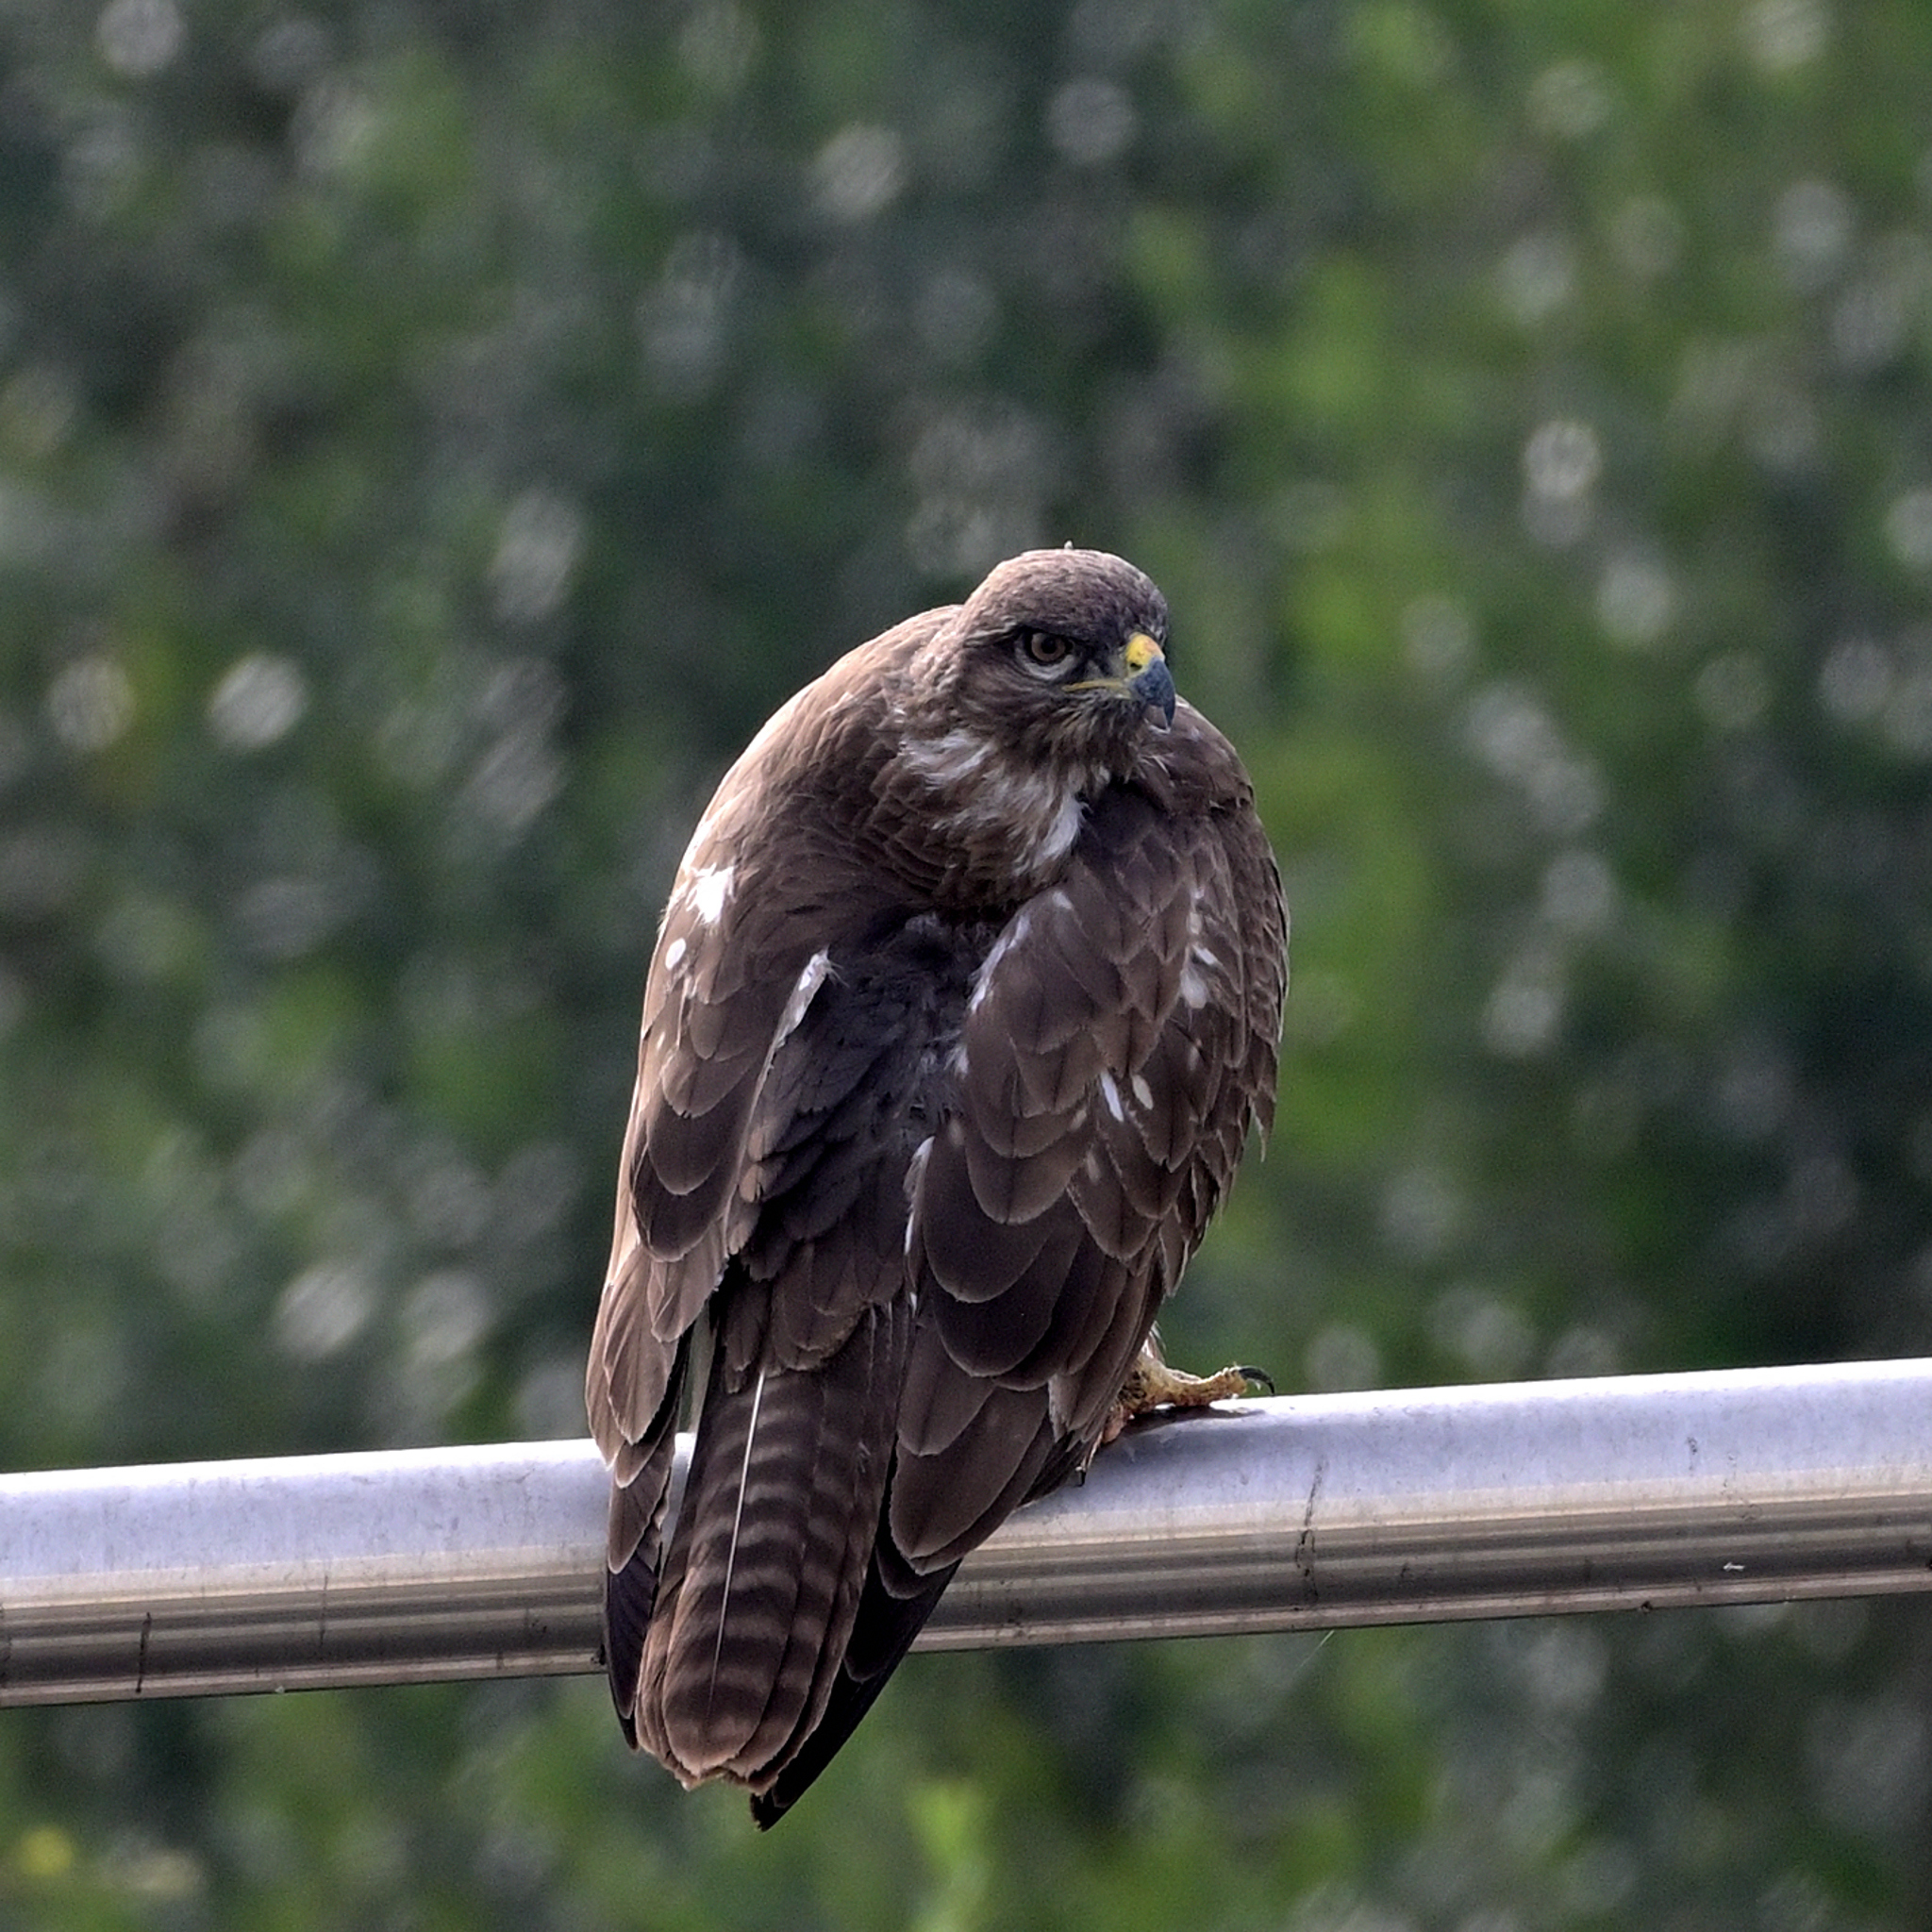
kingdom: Animalia
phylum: Chordata
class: Aves
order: Accipitriformes
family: Accipitridae
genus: Buteo
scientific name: Buteo buteo
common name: Common buzzard
